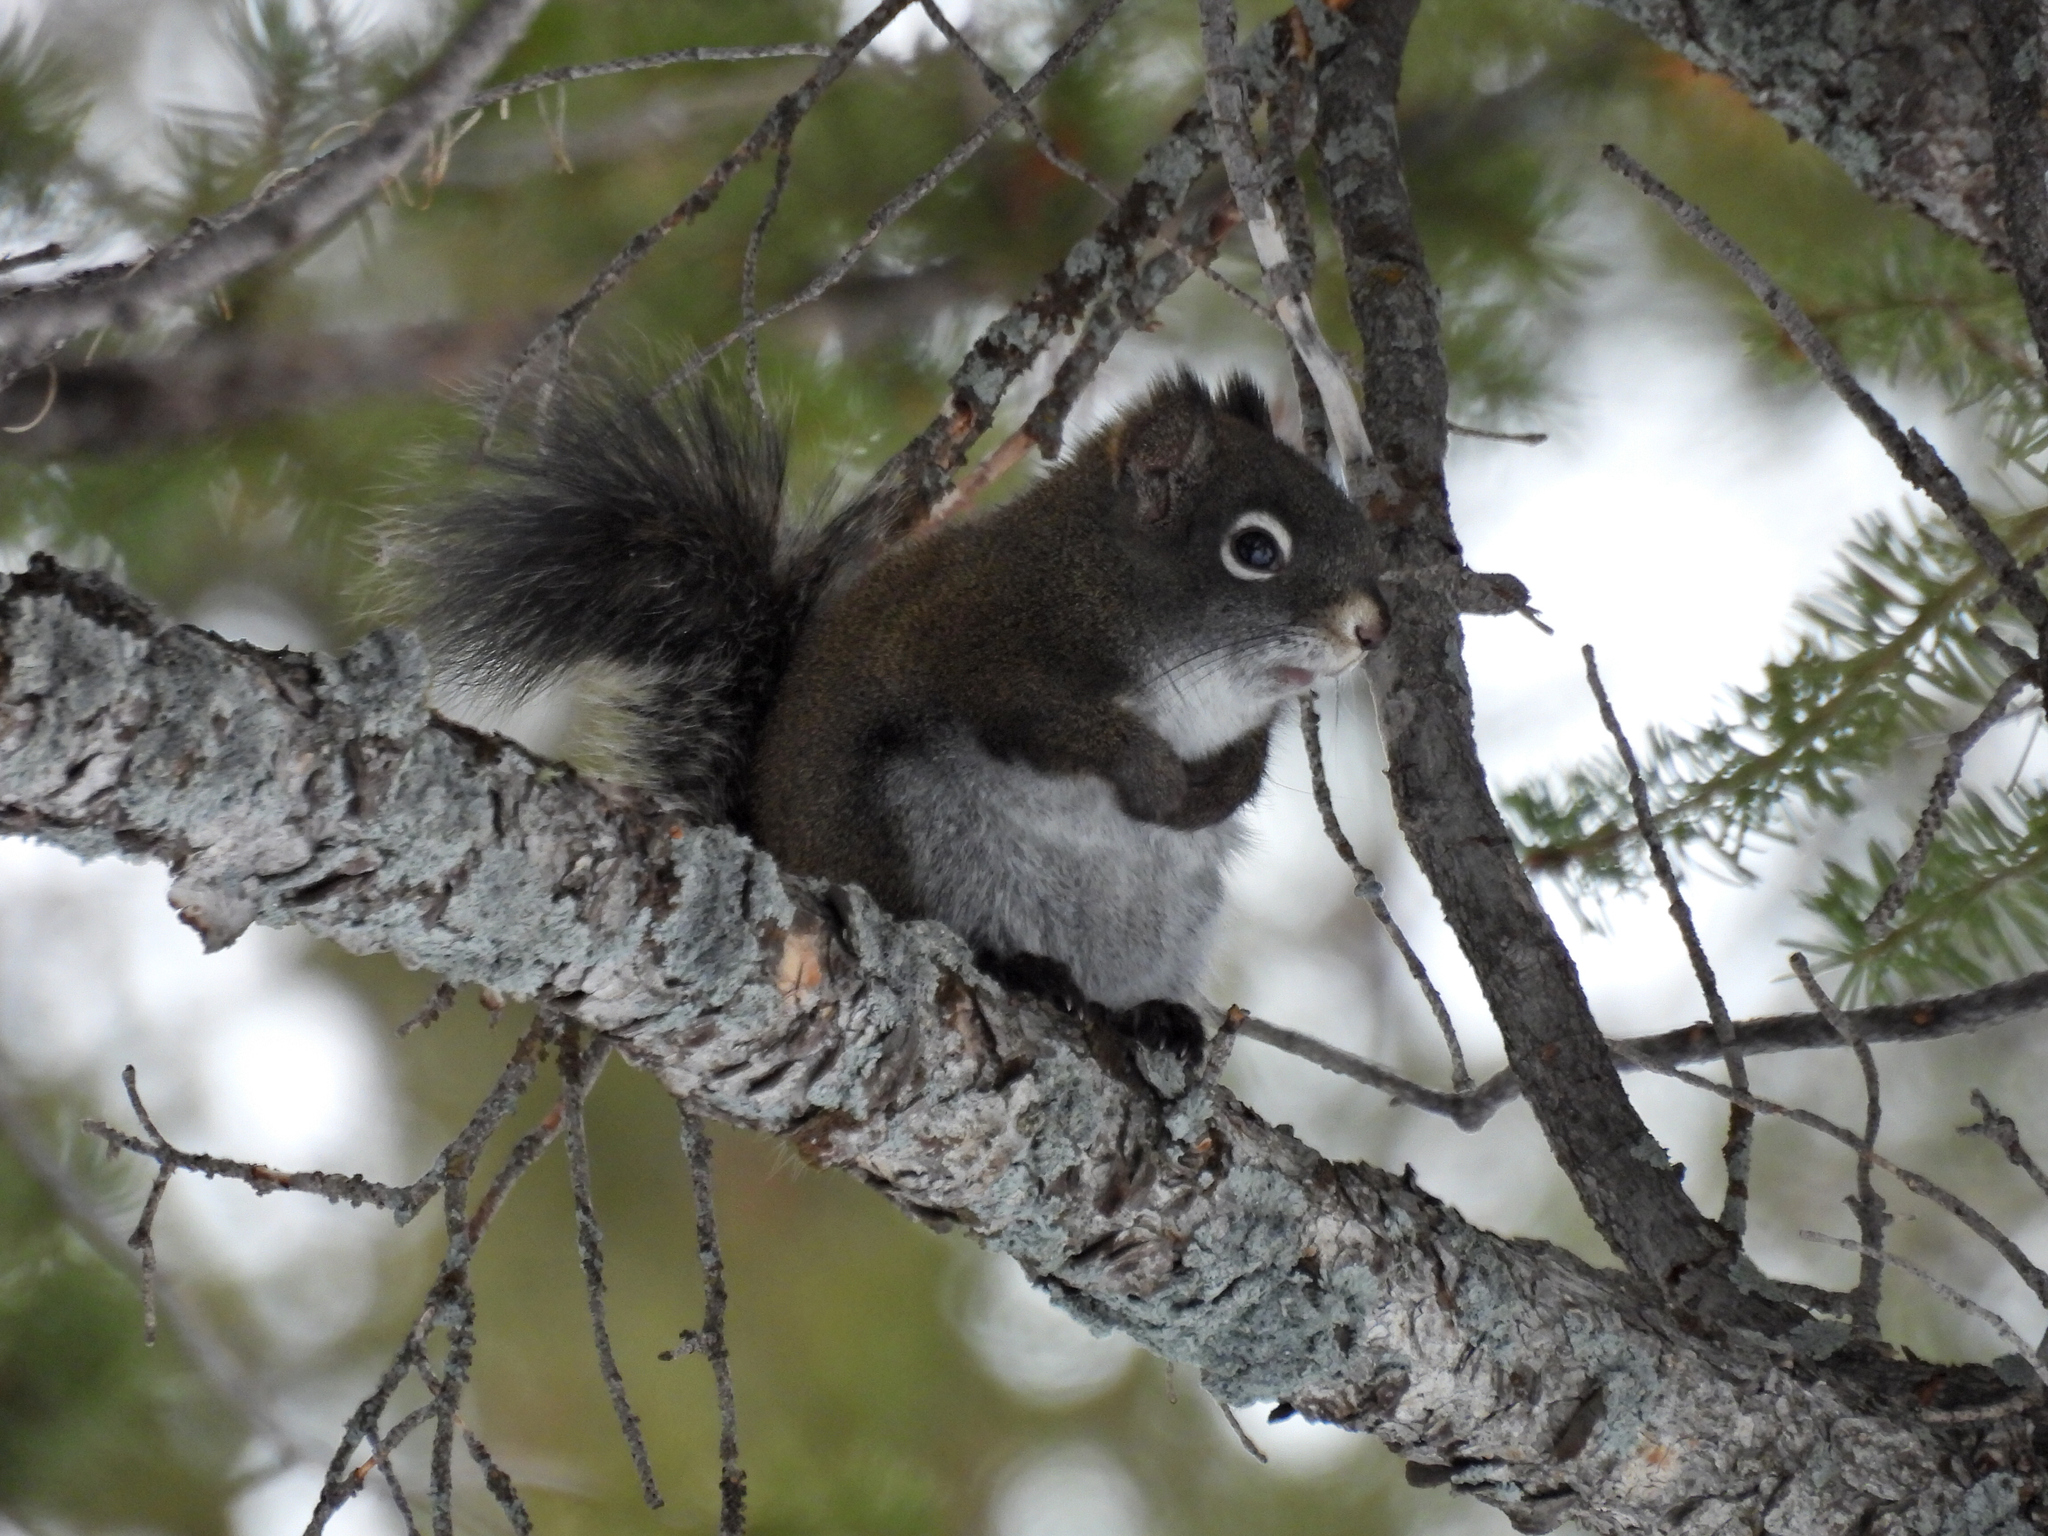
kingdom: Animalia
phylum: Chordata
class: Mammalia
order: Rodentia
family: Sciuridae
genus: Tamiasciurus
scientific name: Tamiasciurus hudsonicus
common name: Red squirrel
